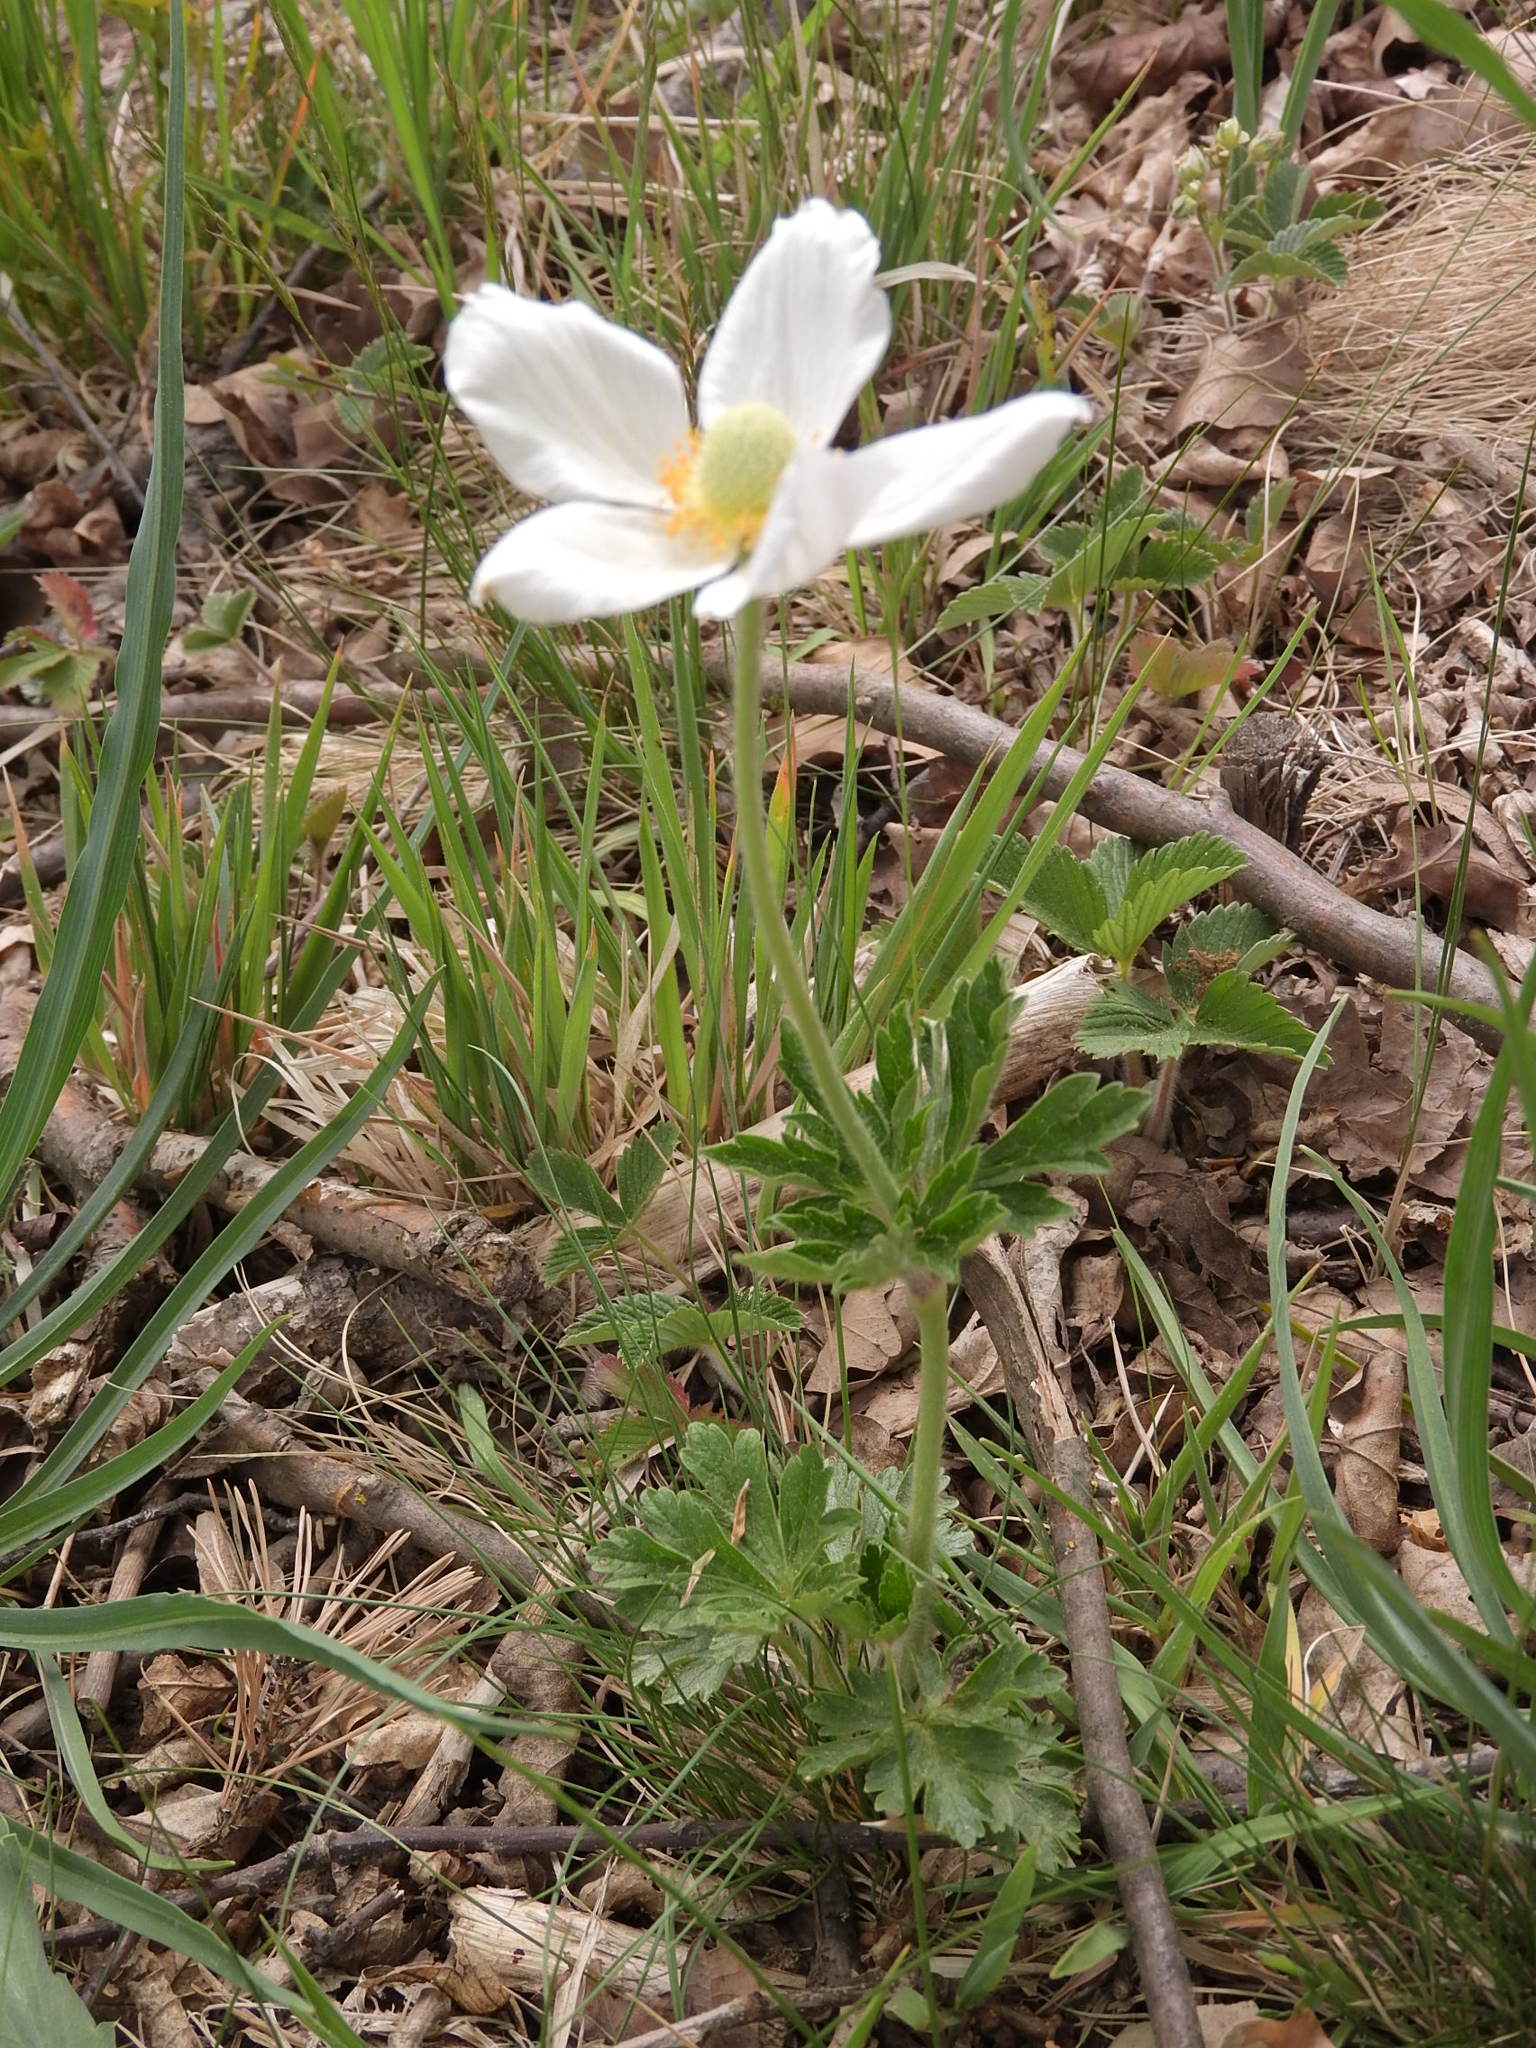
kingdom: Plantae
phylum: Tracheophyta
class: Magnoliopsida
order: Ranunculales
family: Ranunculaceae
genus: Anemone
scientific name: Anemone sylvestris
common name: Snowdrop anemone
